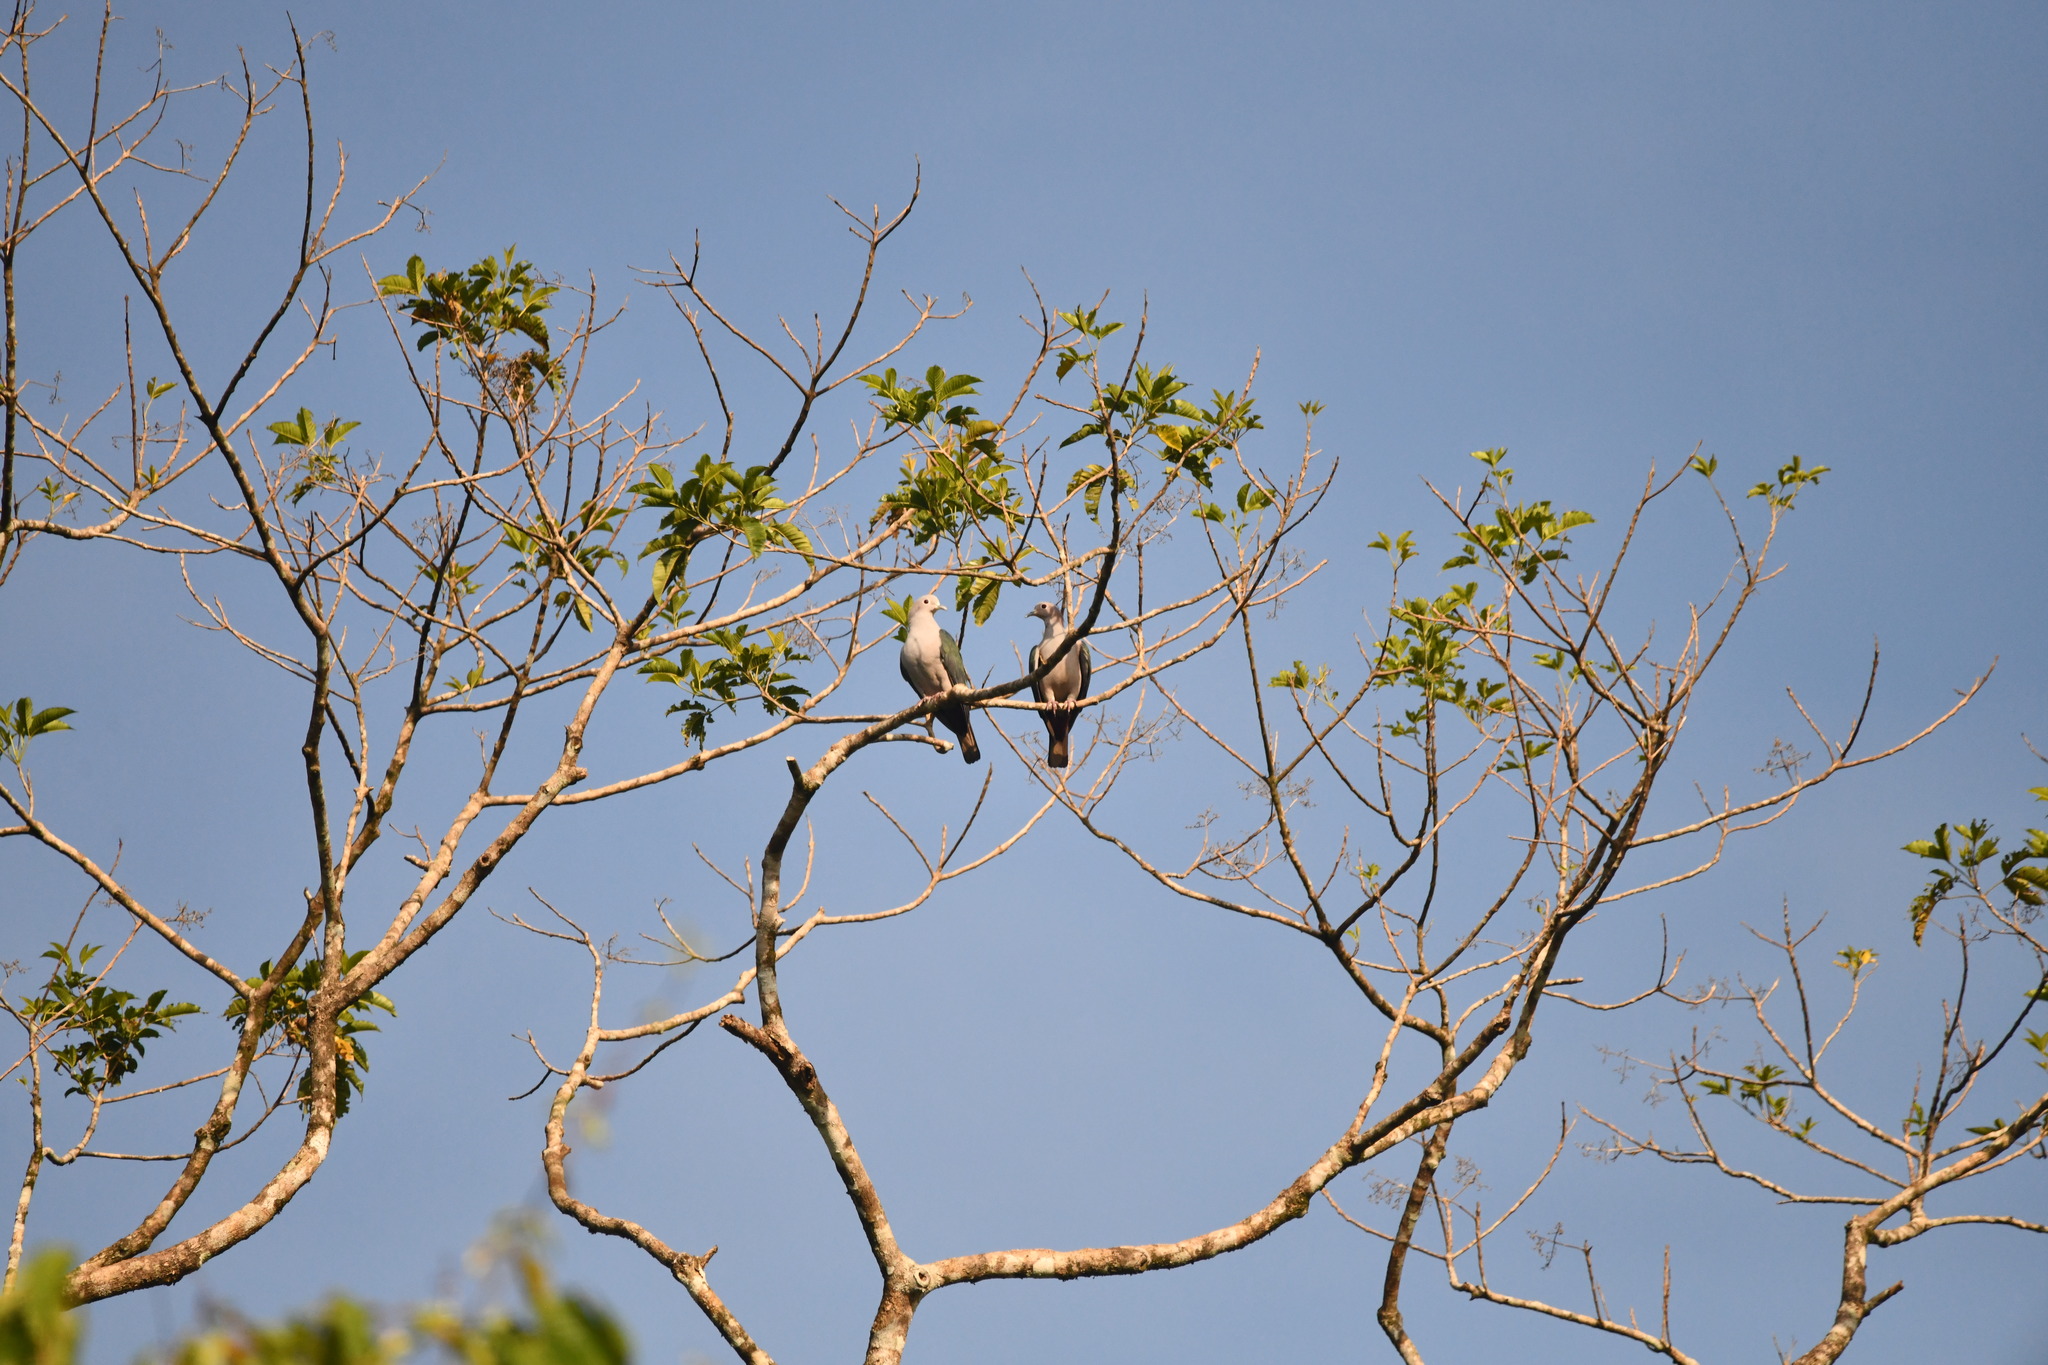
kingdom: Animalia
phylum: Chordata
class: Aves
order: Columbiformes
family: Columbidae
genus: Ducula
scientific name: Ducula aenea
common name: Green imperial pigeon
